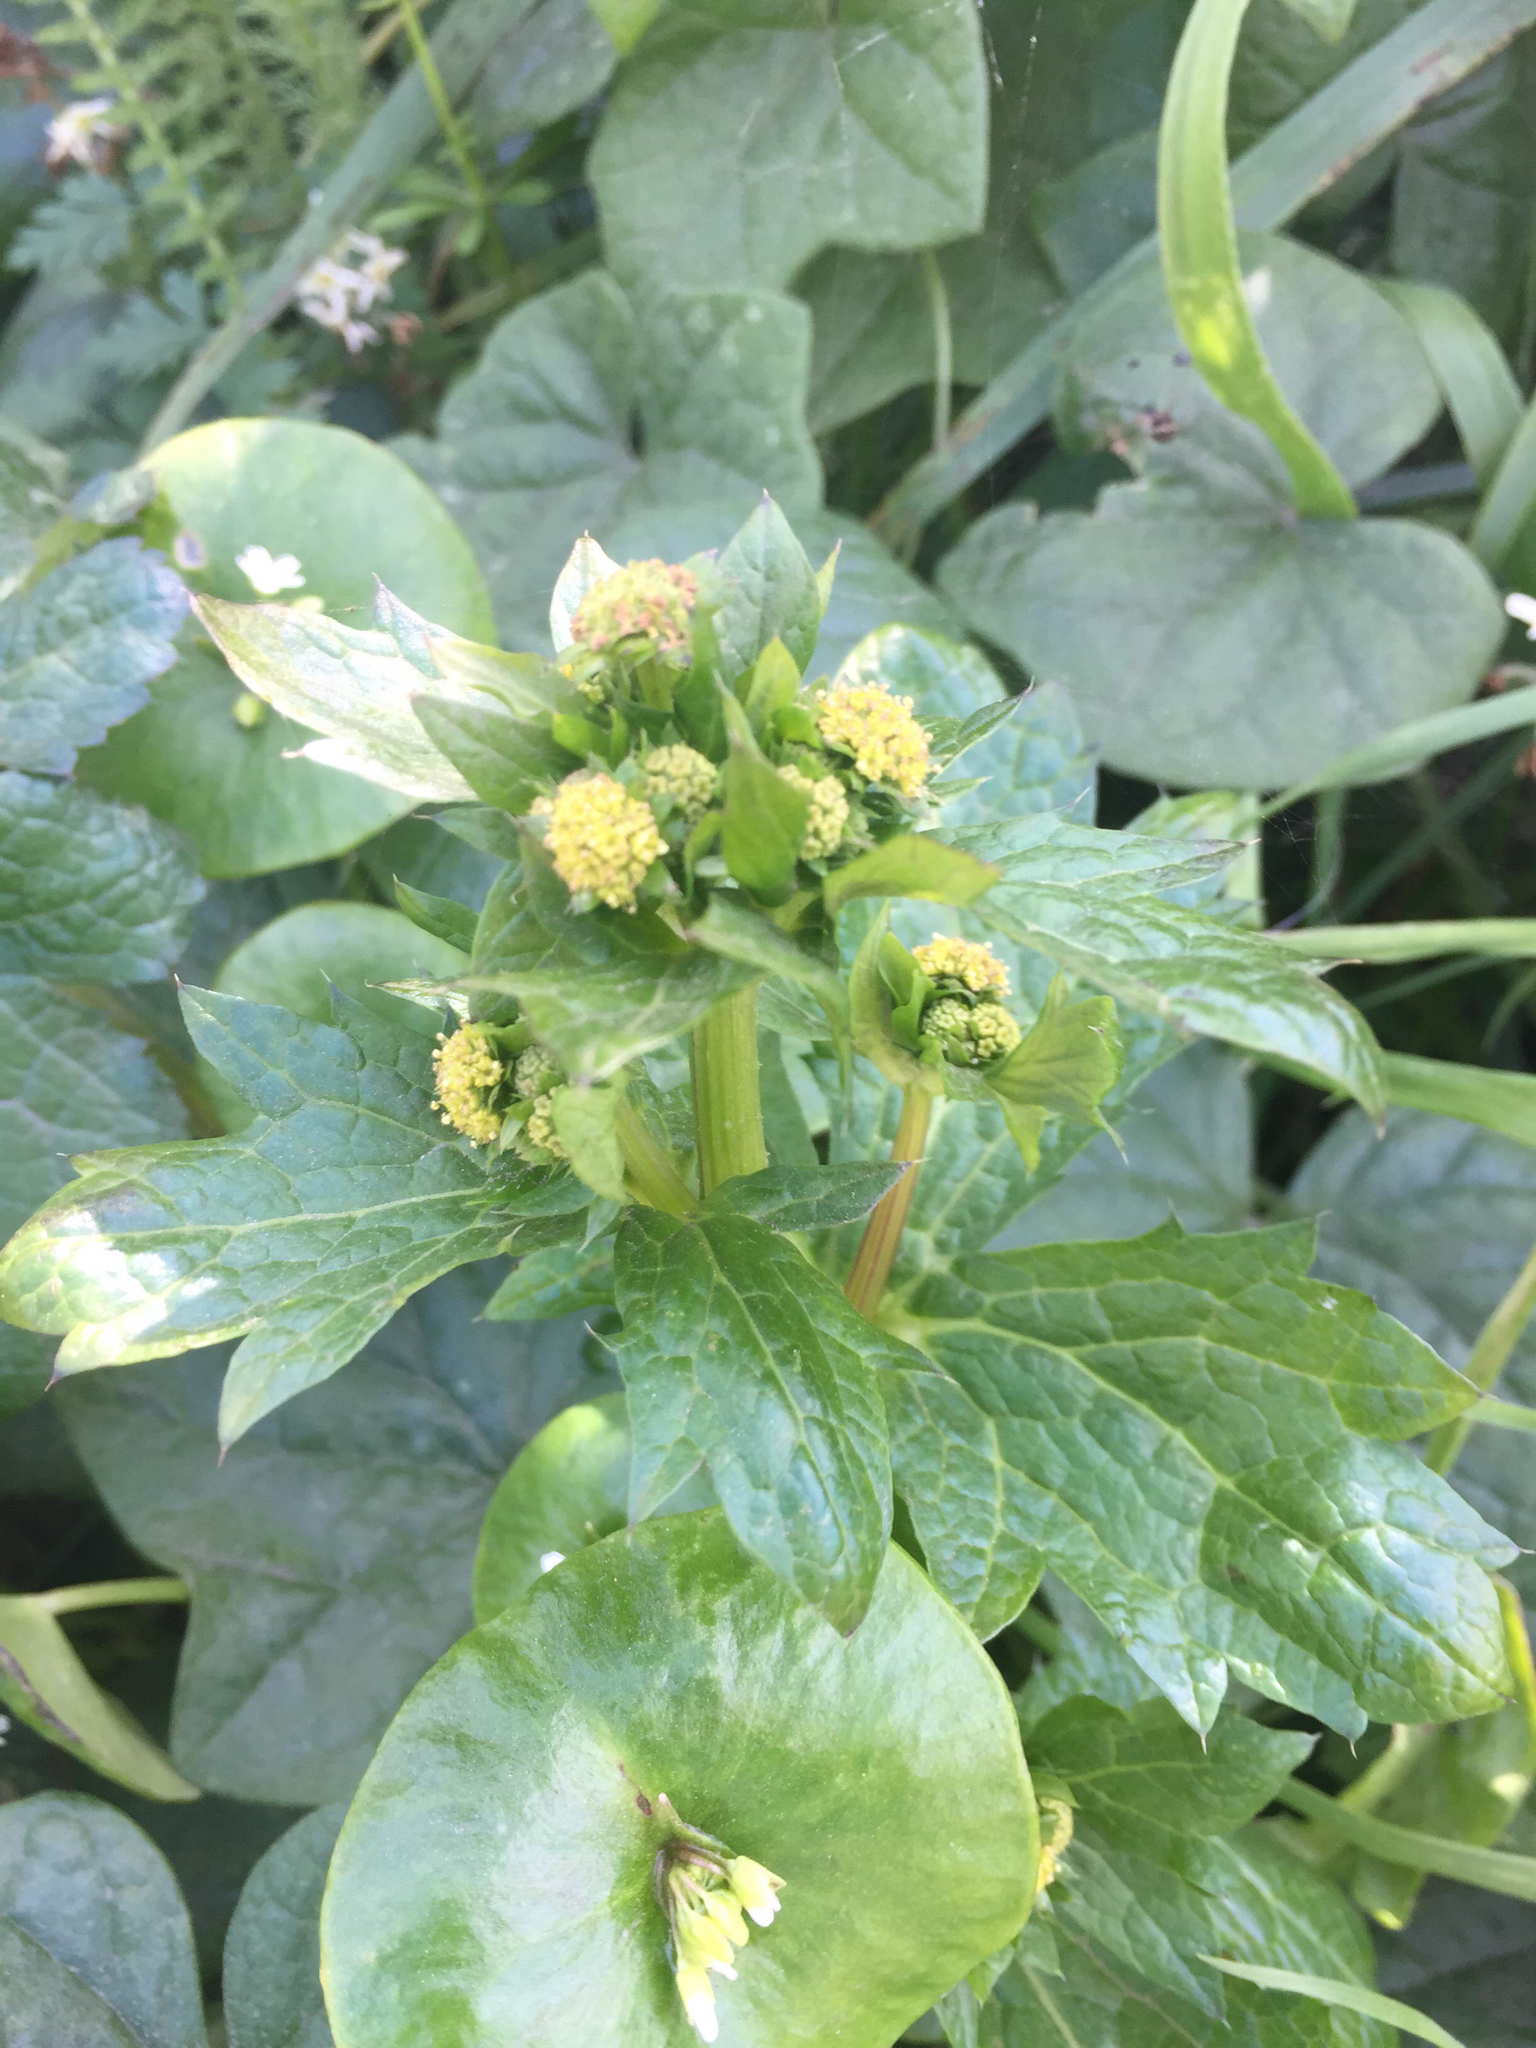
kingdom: Plantae
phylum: Tracheophyta
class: Magnoliopsida
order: Apiales
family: Apiaceae
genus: Sanicula
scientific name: Sanicula crassicaulis
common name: Western snakeroot
